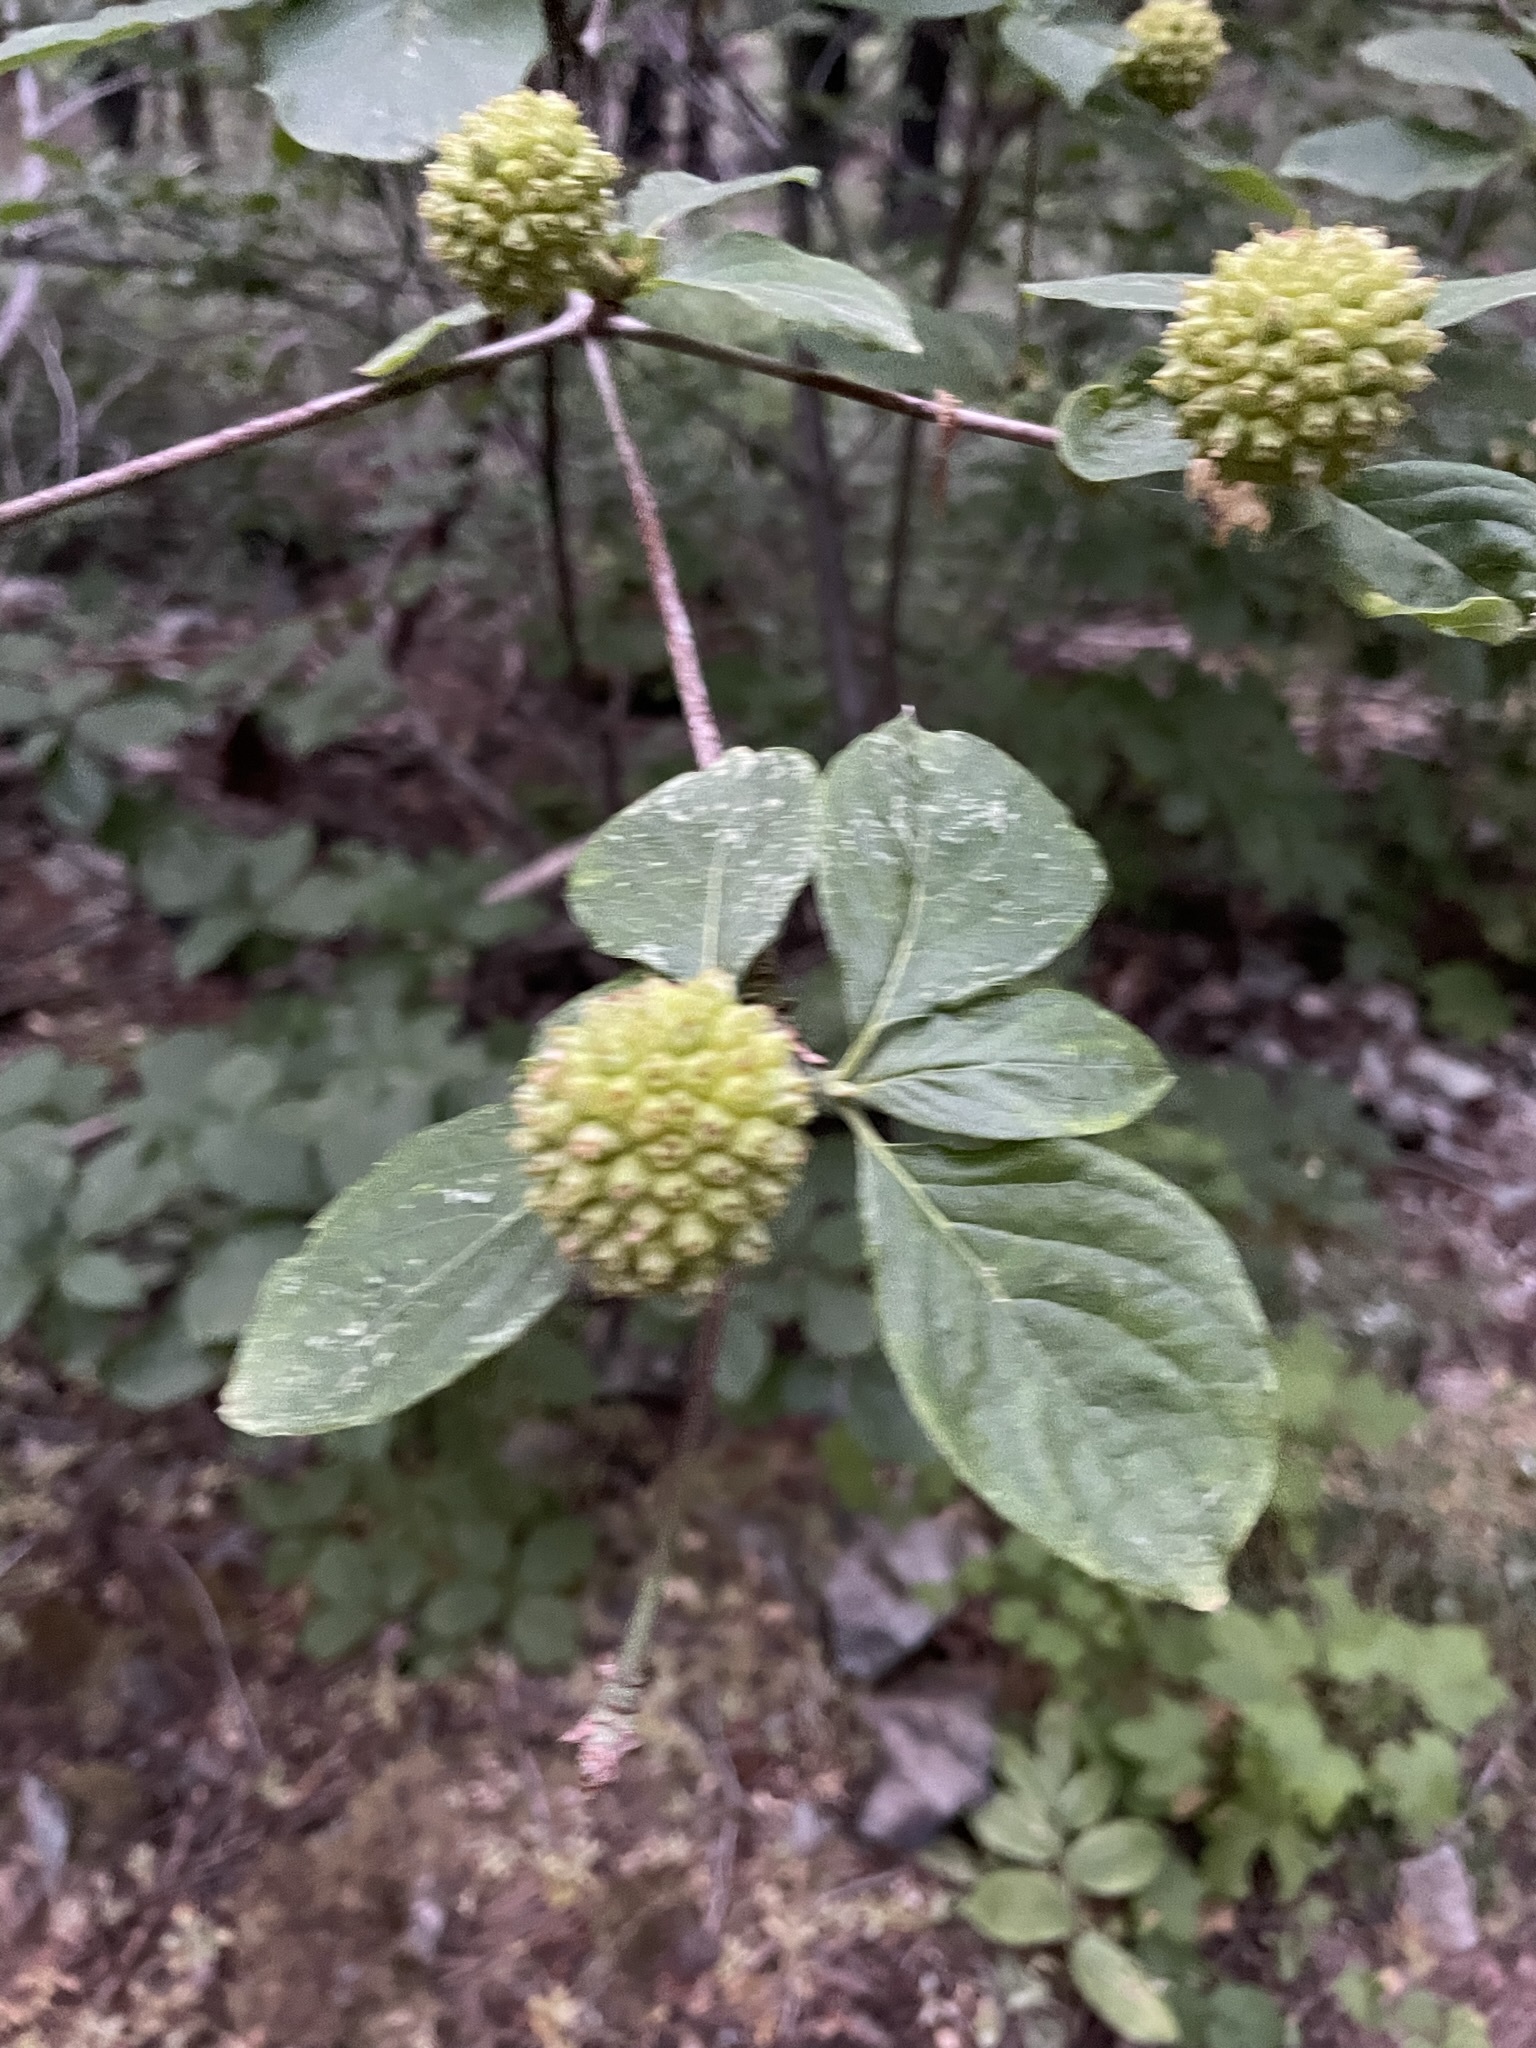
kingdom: Plantae
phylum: Tracheophyta
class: Magnoliopsida
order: Cornales
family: Cornaceae
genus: Cornus
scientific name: Cornus nuttallii
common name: Pacific dogwood
